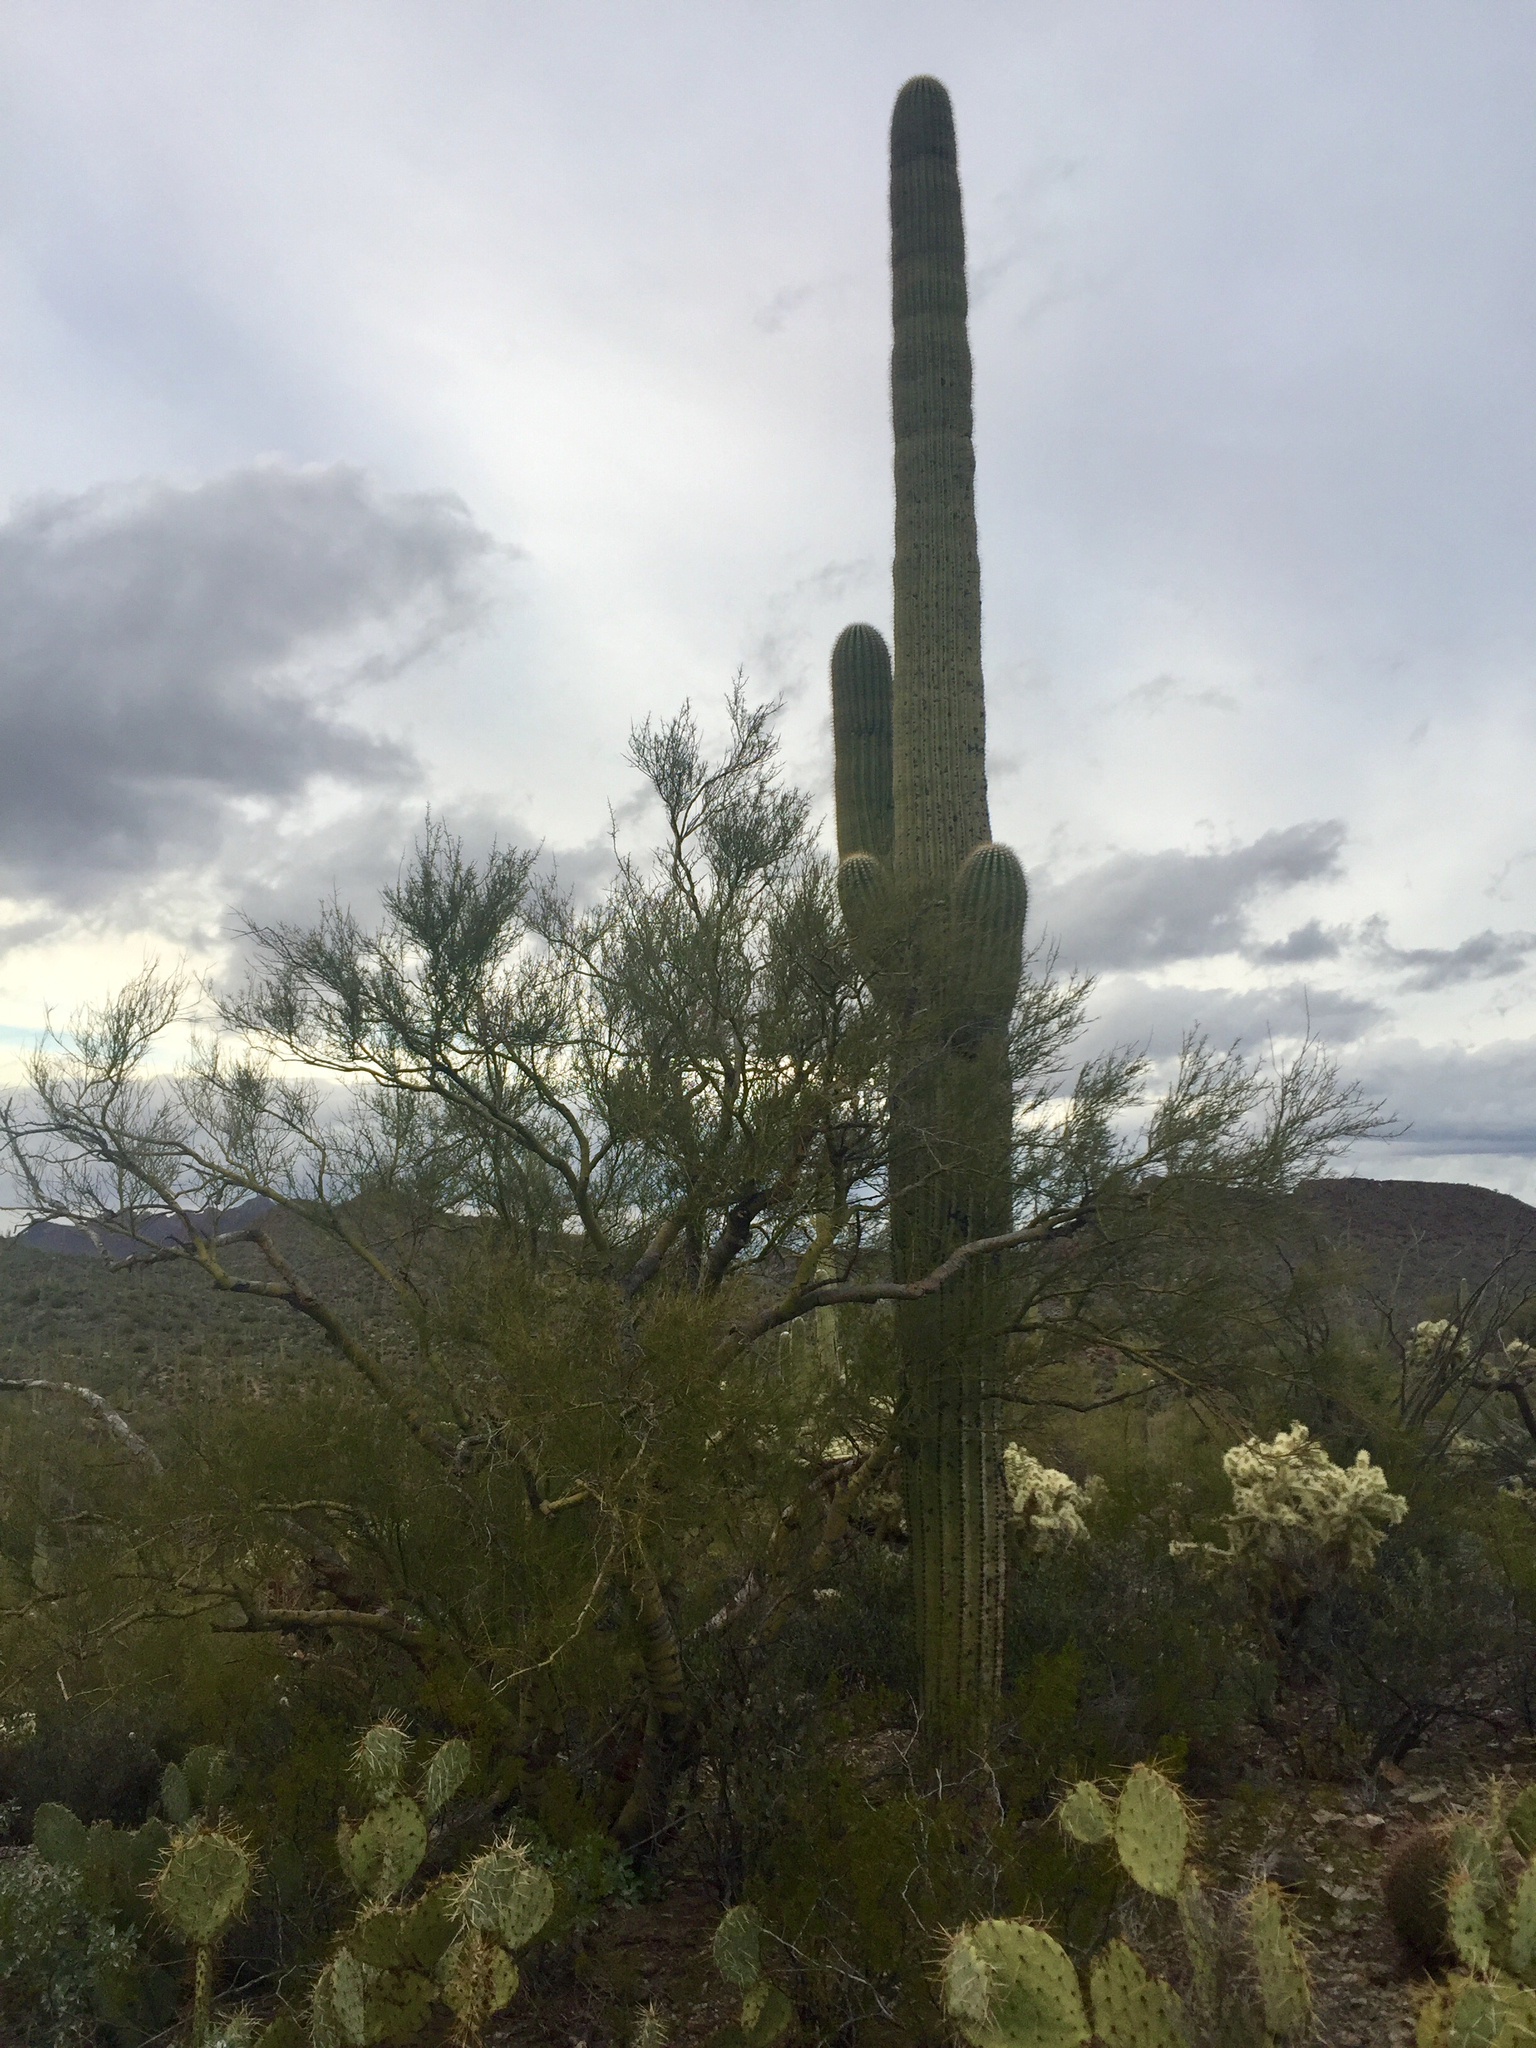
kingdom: Plantae
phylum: Tracheophyta
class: Magnoliopsida
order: Caryophyllales
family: Cactaceae
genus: Carnegiea
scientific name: Carnegiea gigantea
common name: Saguaro
